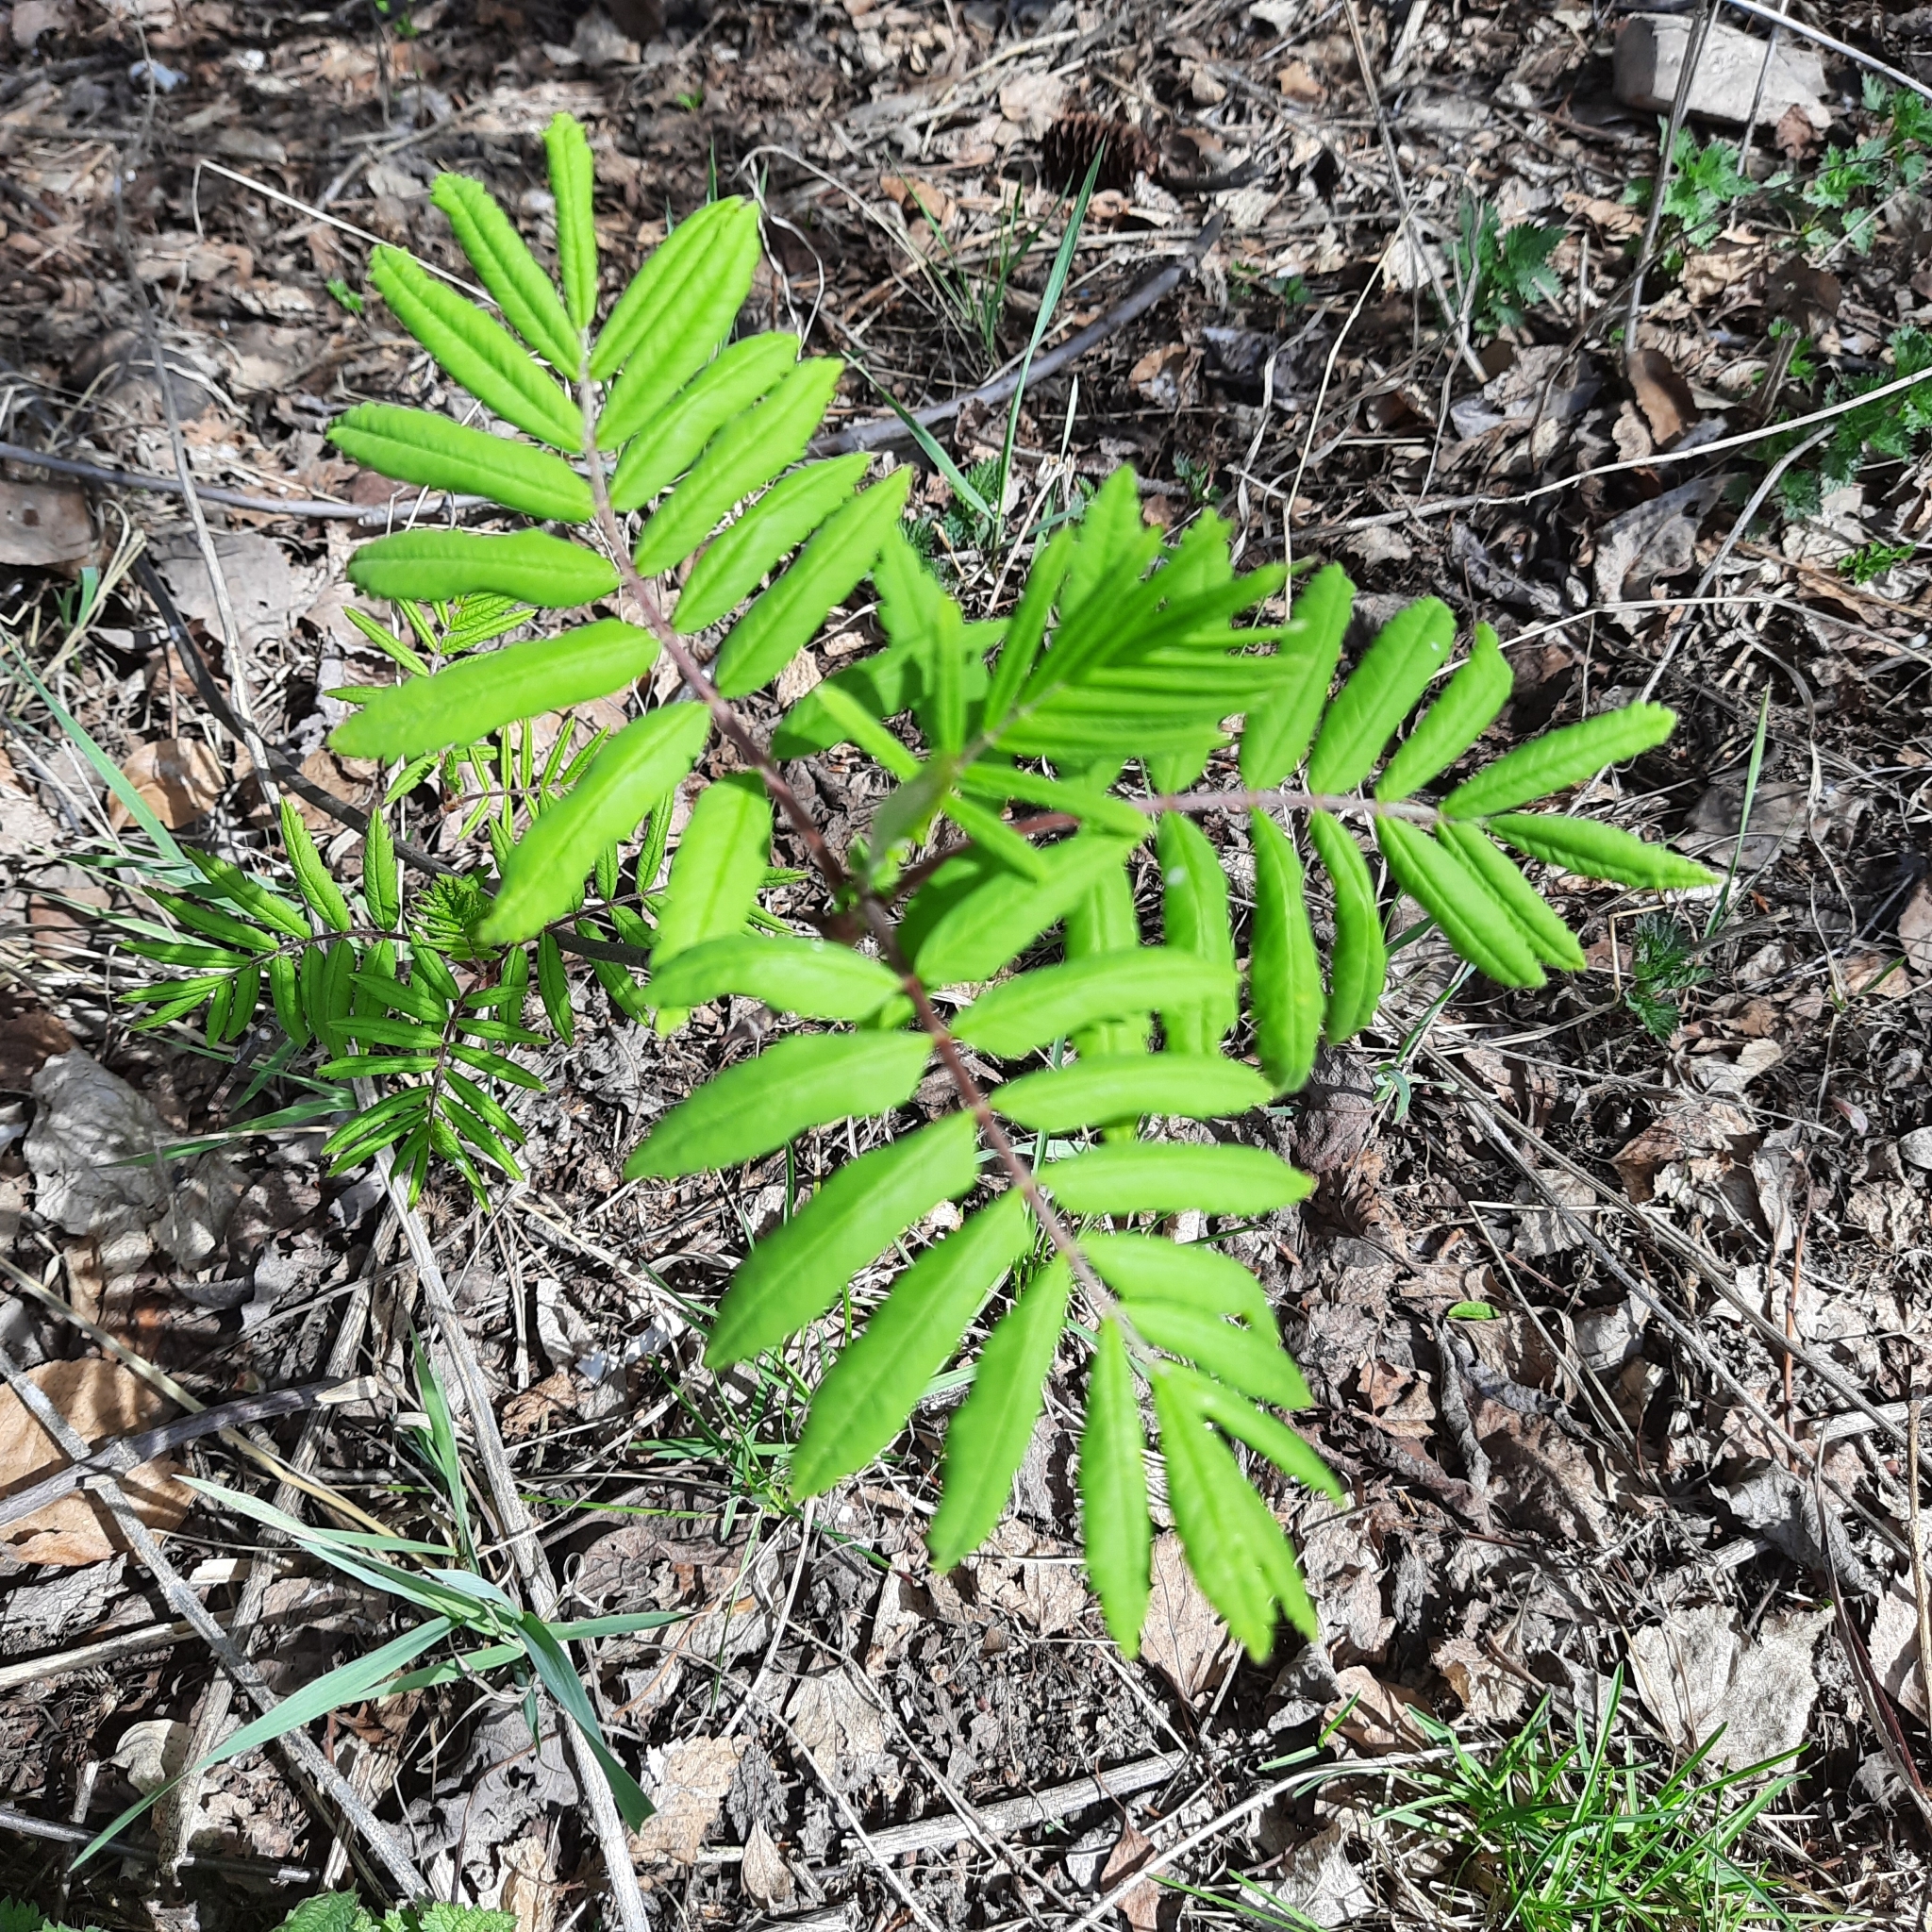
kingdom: Plantae
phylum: Tracheophyta
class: Magnoliopsida
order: Rosales
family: Rosaceae
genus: Sorbus
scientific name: Sorbus aucuparia
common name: Rowan
